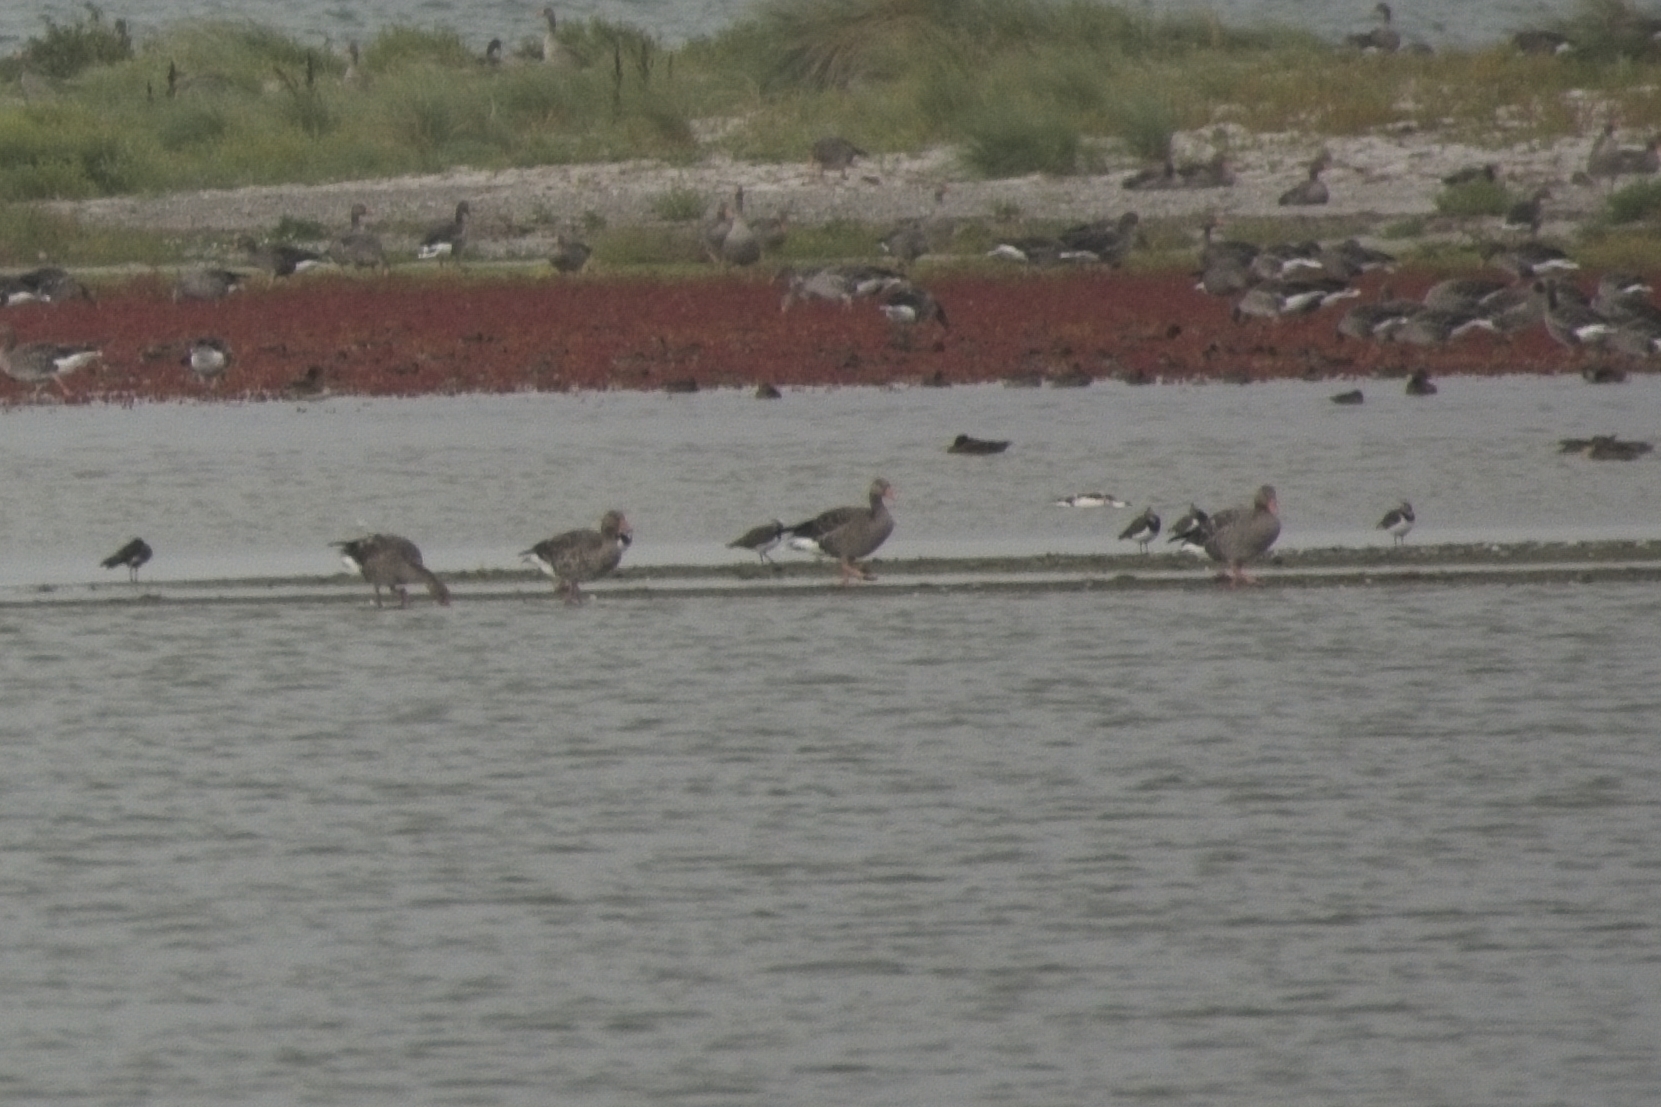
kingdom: Animalia
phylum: Chordata
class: Aves
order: Charadriiformes
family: Charadriidae
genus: Vanellus
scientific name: Vanellus vanellus
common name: Northern lapwing
